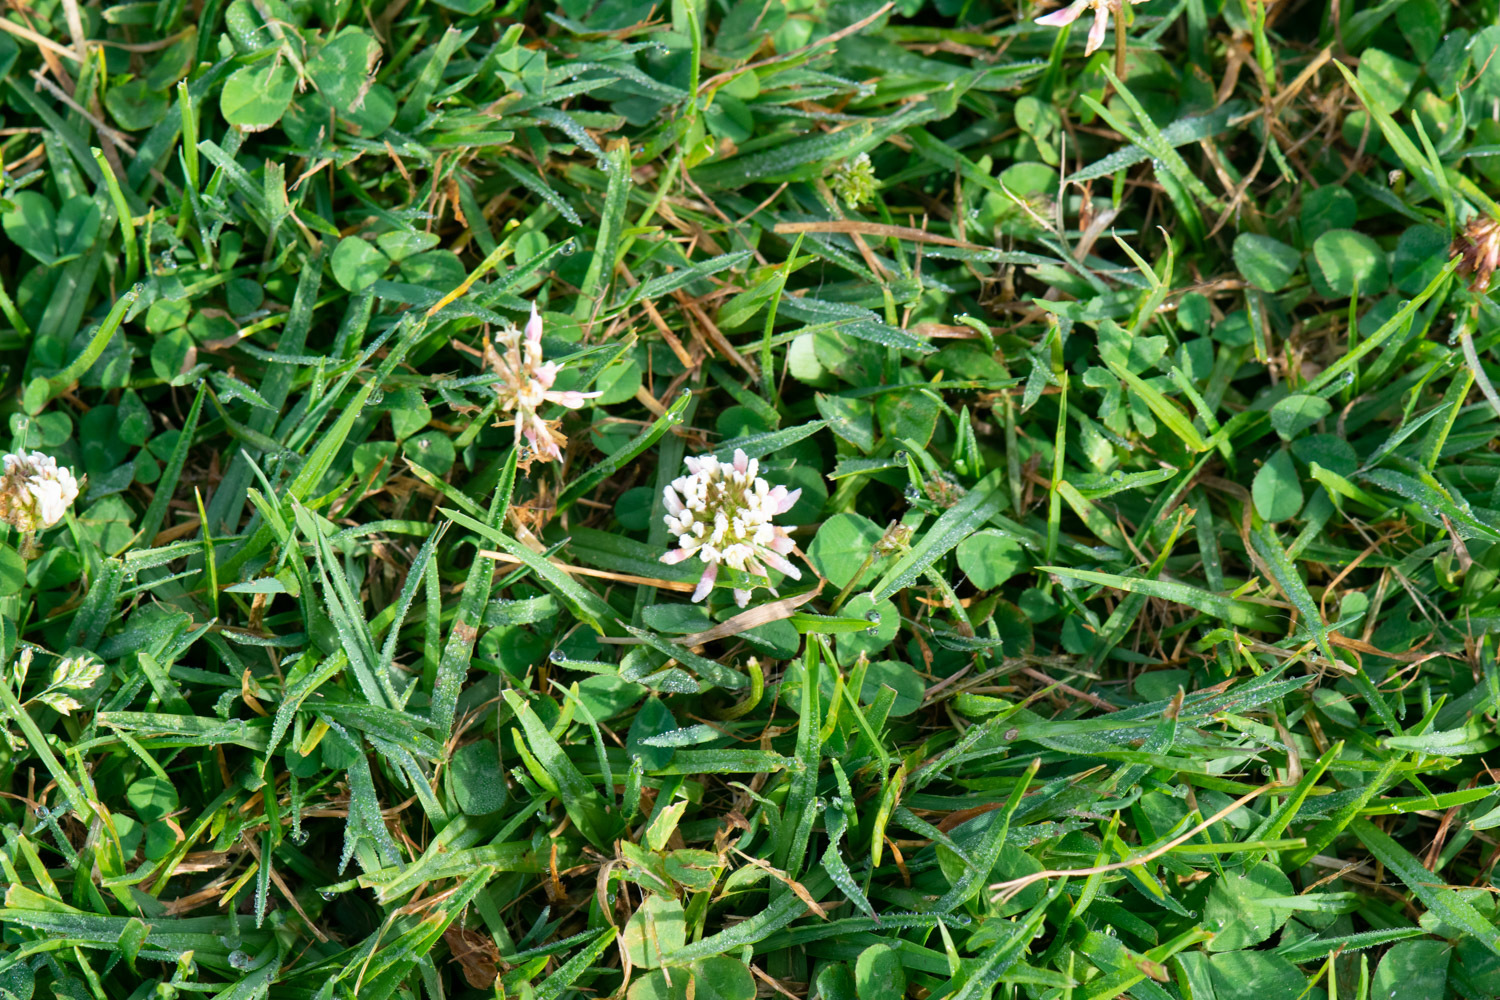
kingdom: Plantae
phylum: Tracheophyta
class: Magnoliopsida
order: Fabales
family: Fabaceae
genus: Trifolium
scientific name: Trifolium repens
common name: White clover
